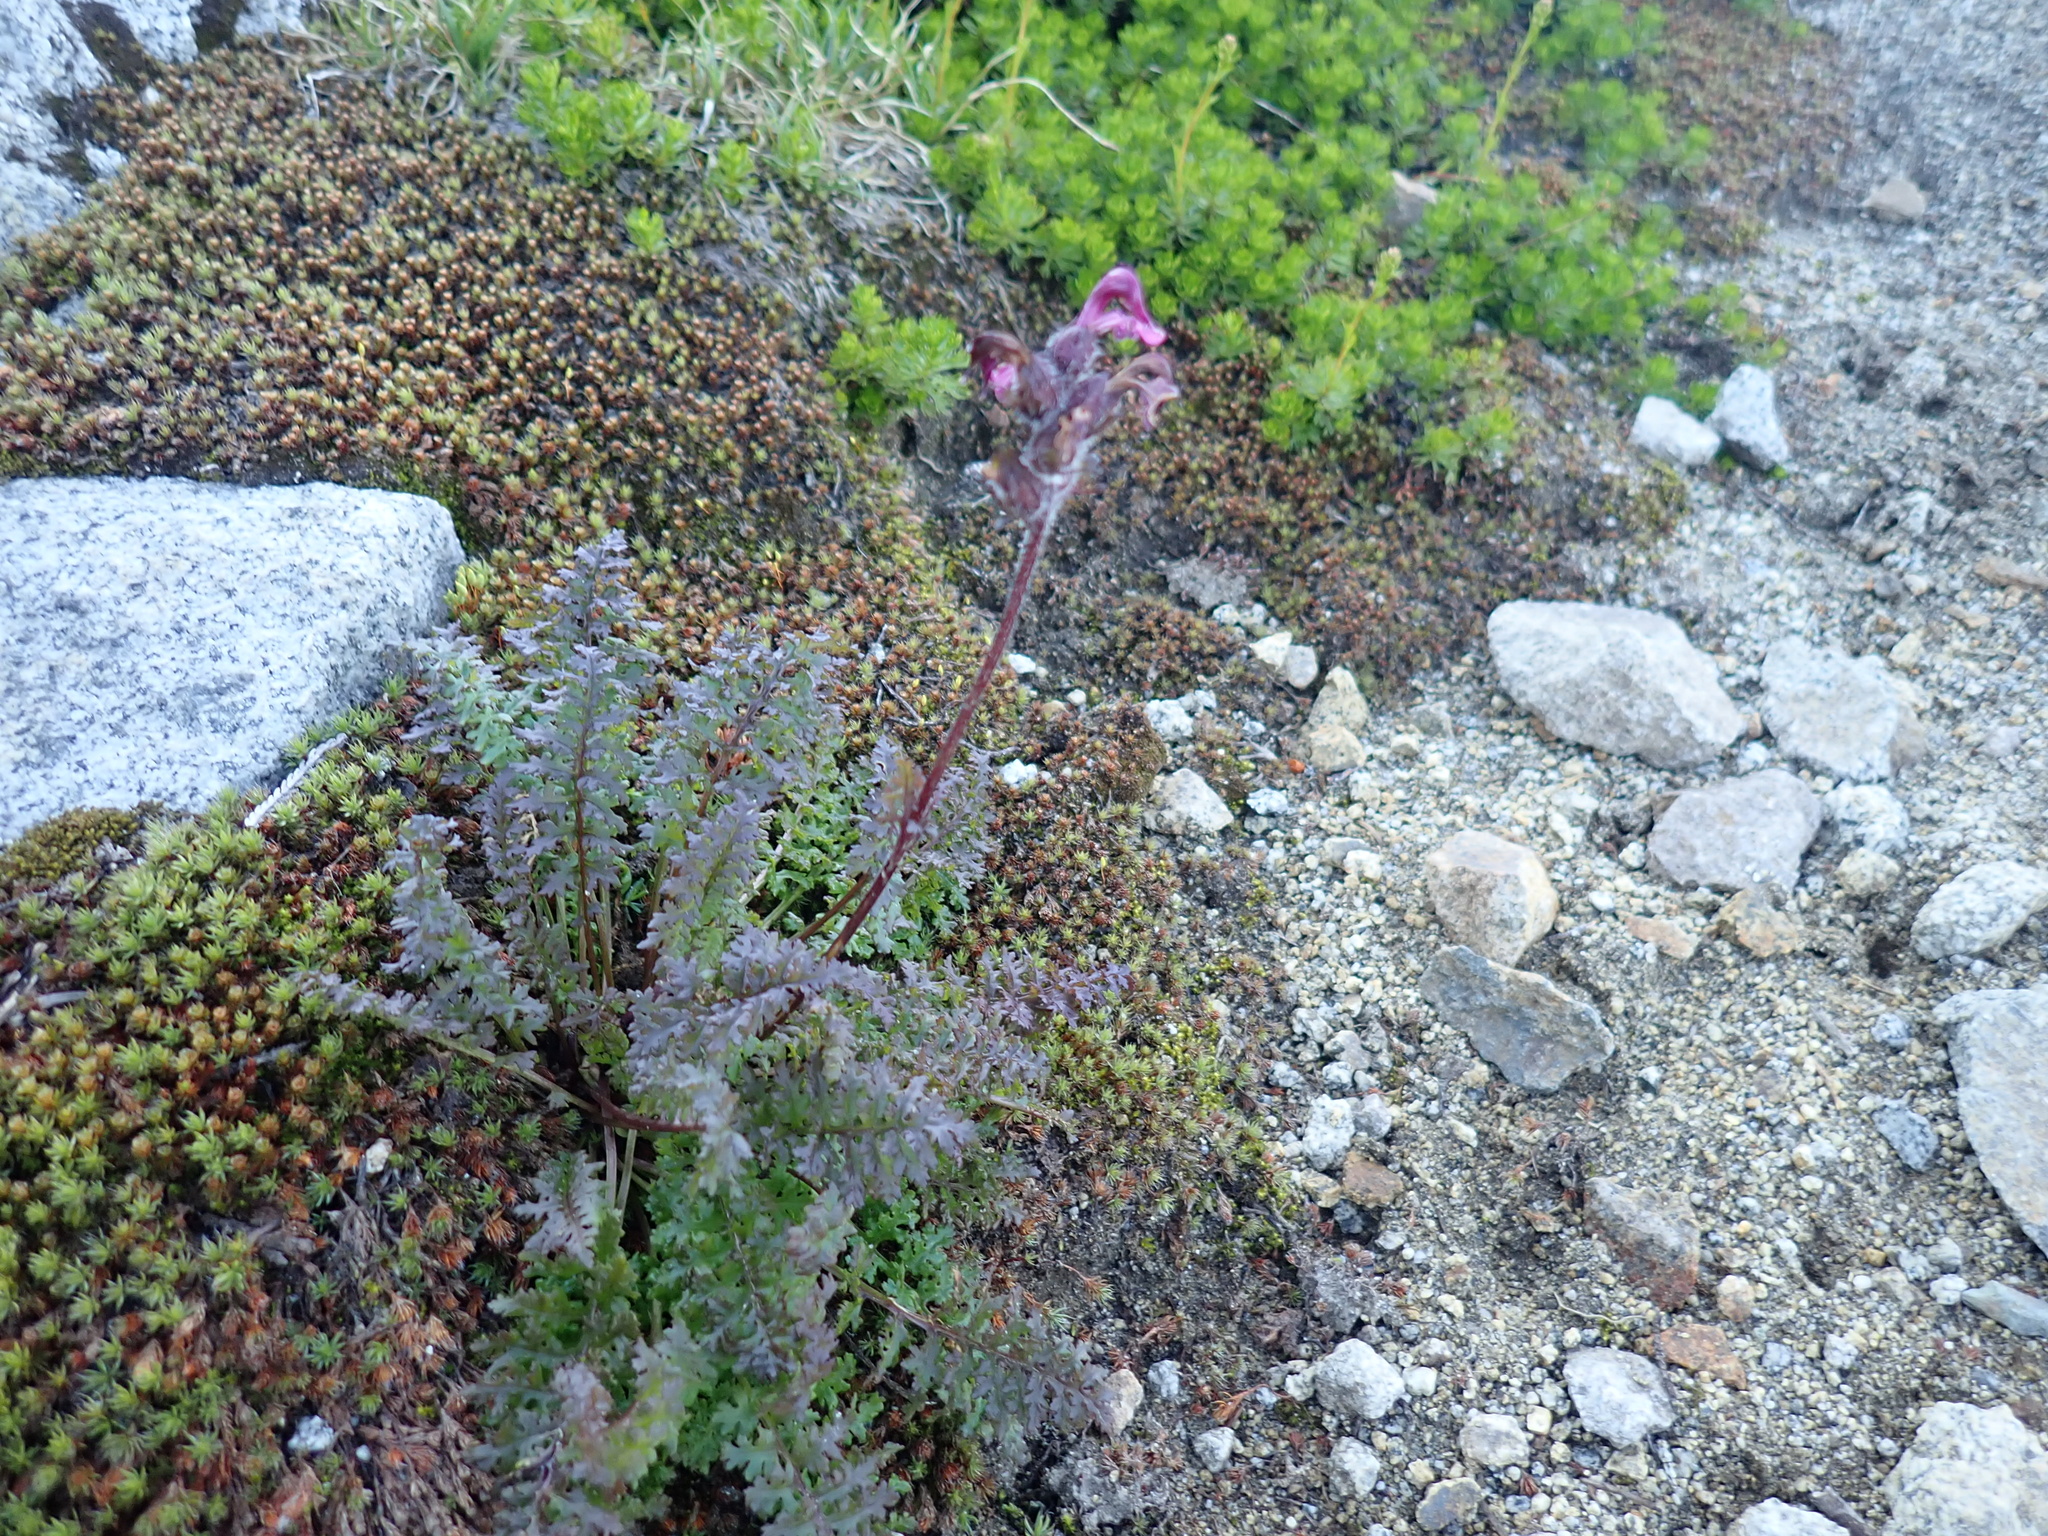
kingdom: Plantae
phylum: Tracheophyta
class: Magnoliopsida
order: Lamiales
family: Orobanchaceae
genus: Pedicularis
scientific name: Pedicularis ornithorhynchos
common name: Bird's-beak lousewort
